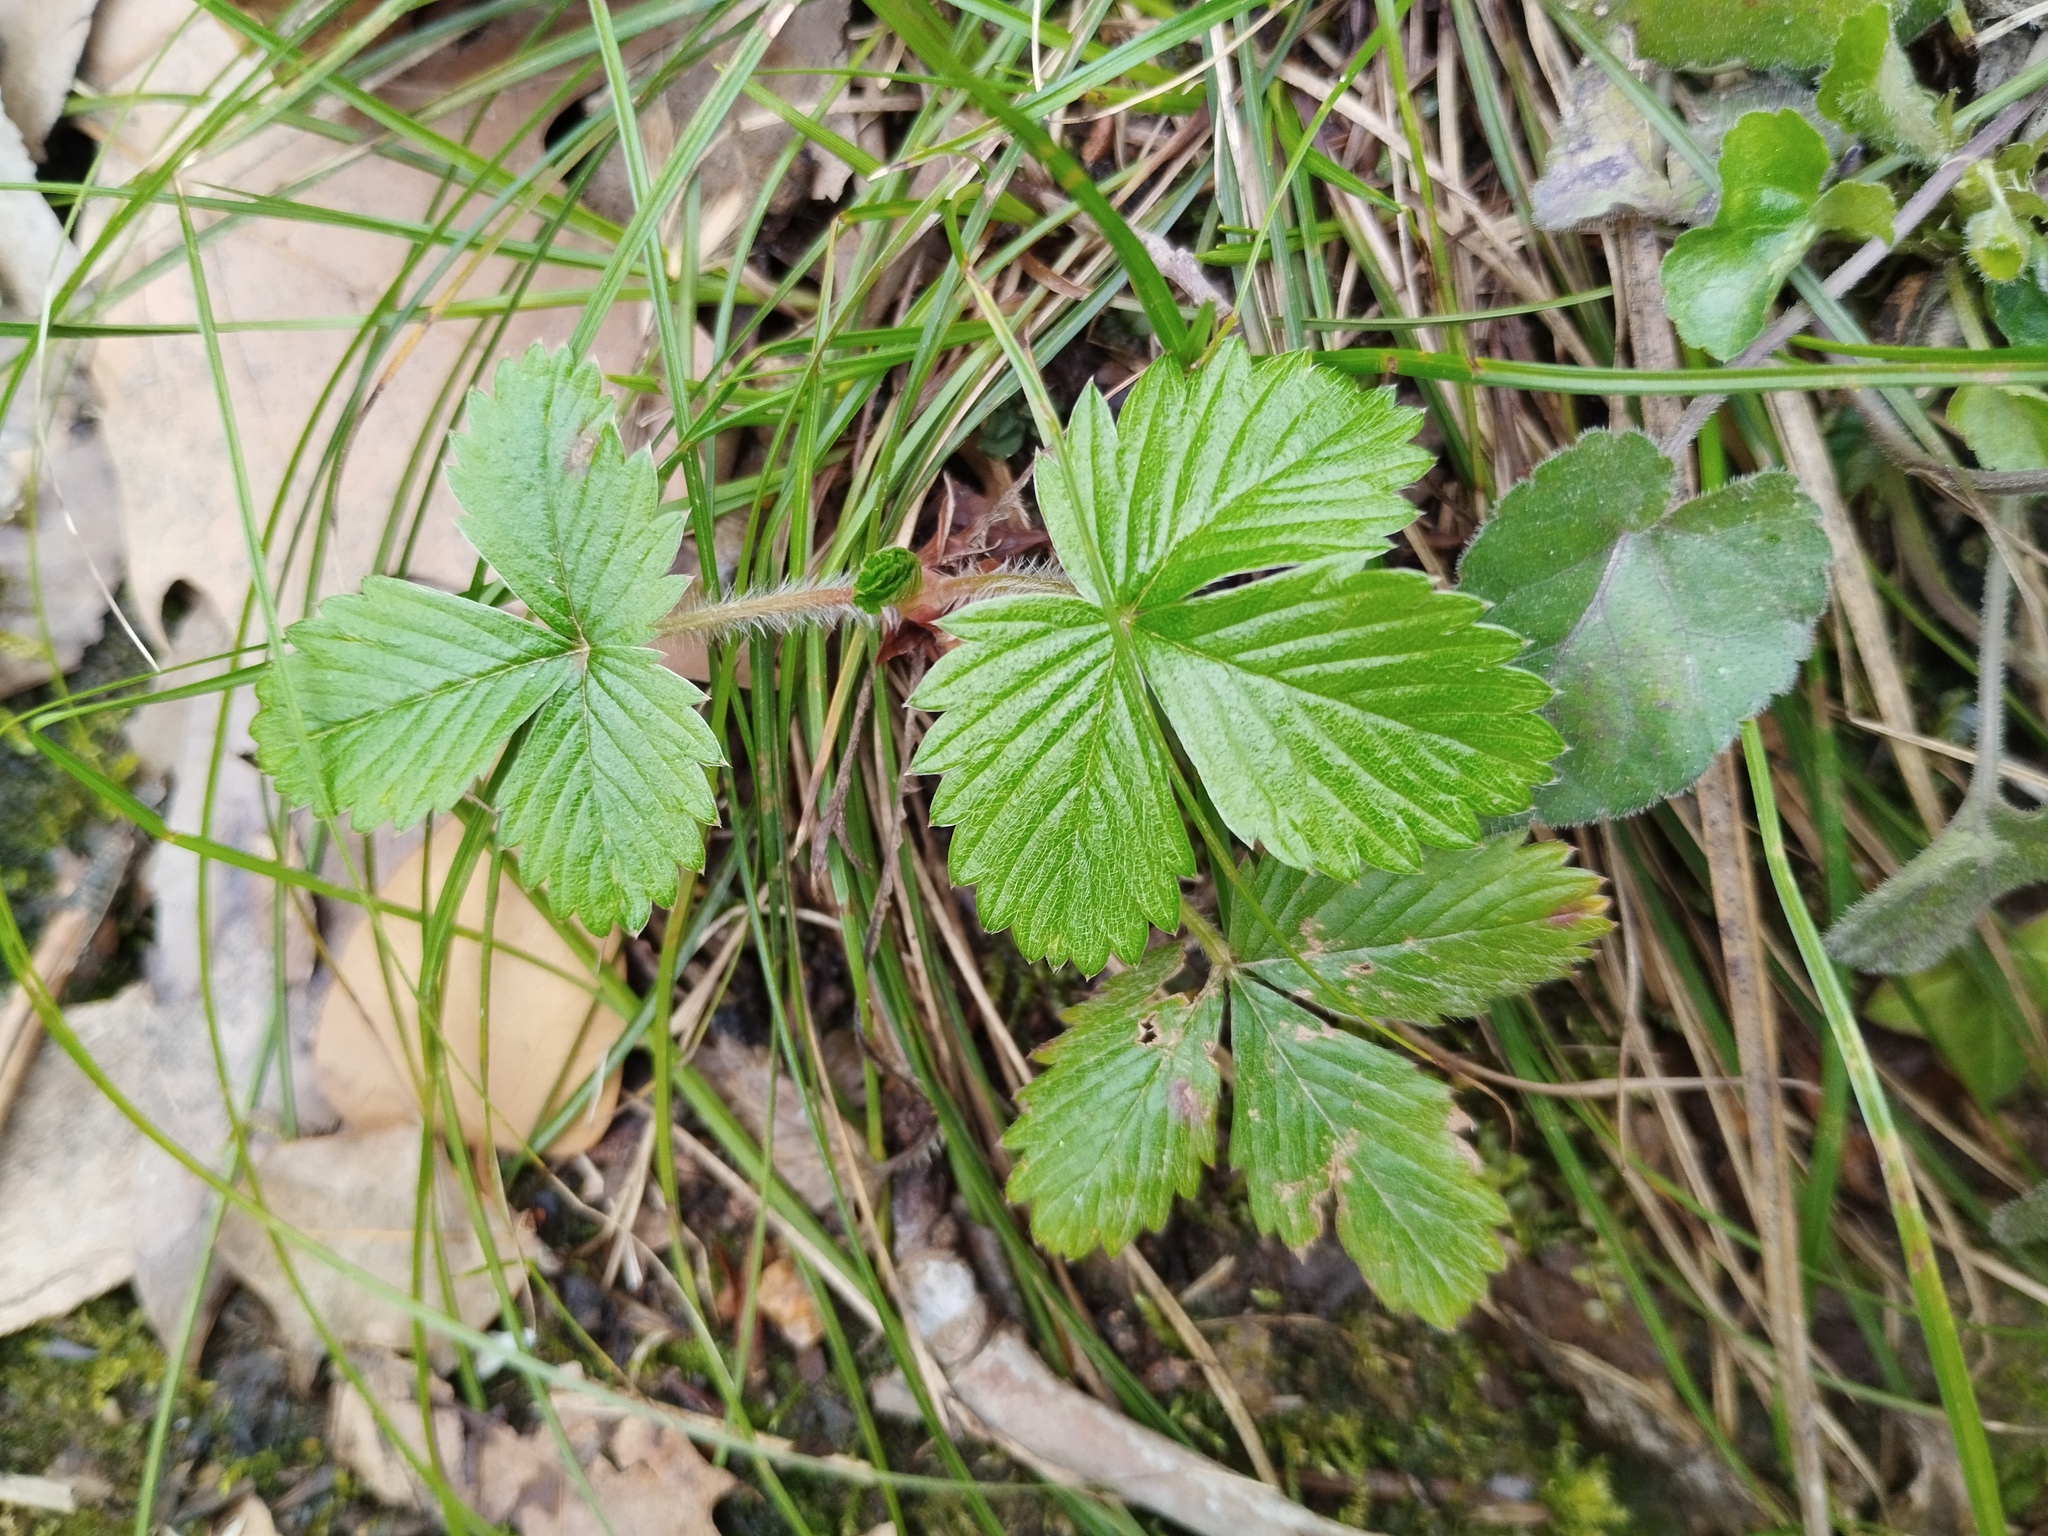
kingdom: Plantae
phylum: Tracheophyta
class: Magnoliopsida
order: Rosales
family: Rosaceae
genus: Fragaria
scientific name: Fragaria vesca
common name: Wild strawberry
